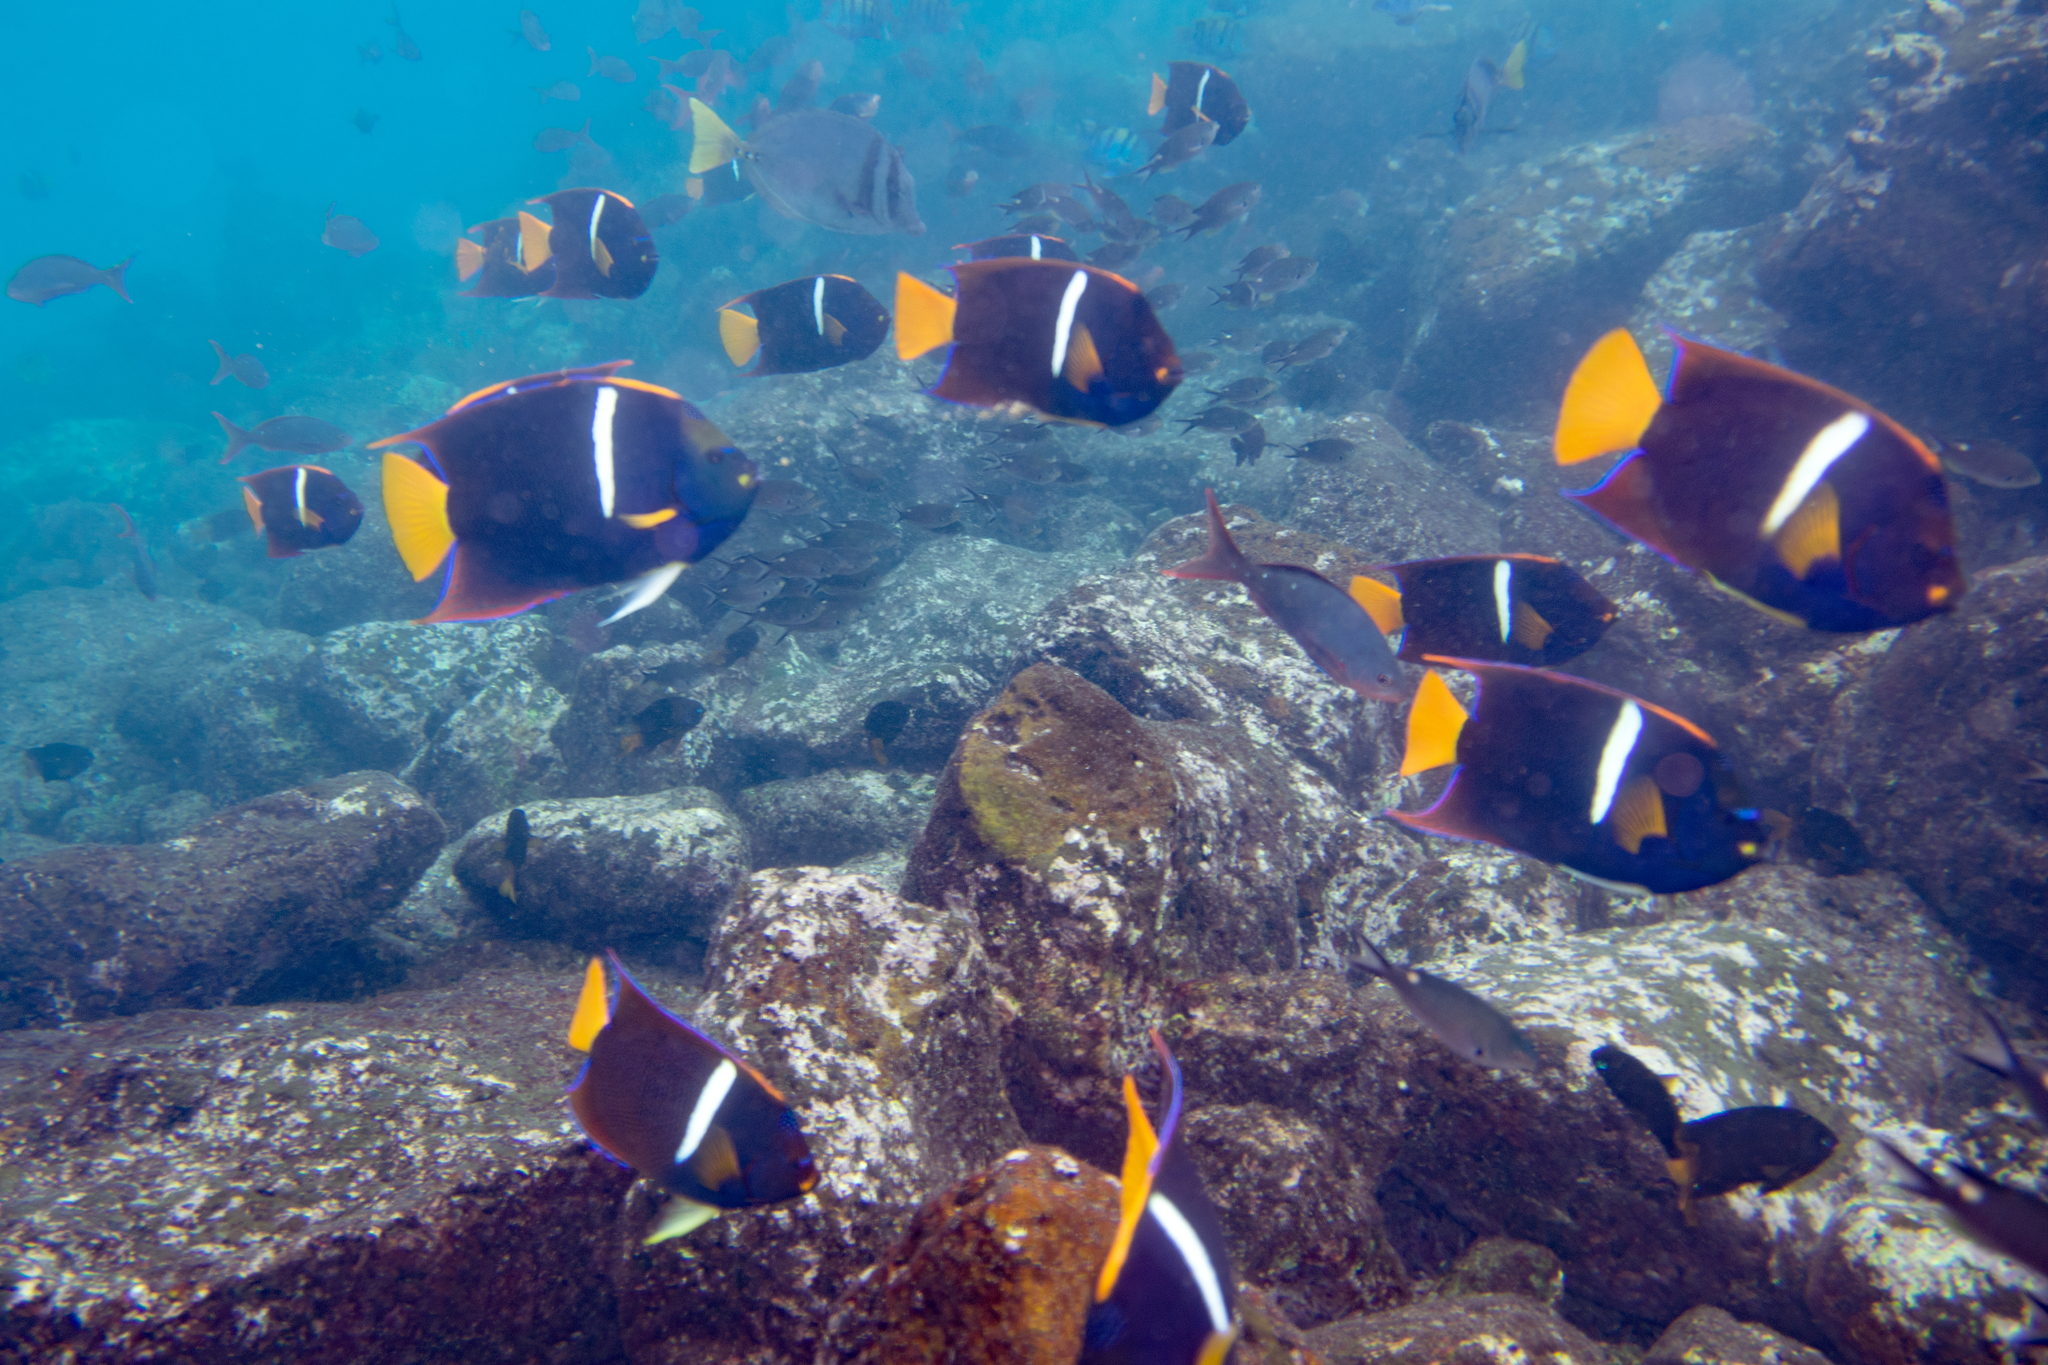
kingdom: Animalia
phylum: Chordata
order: Perciformes
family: Pomacanthidae
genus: Holacanthus
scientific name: Holacanthus passer
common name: King angelfish
